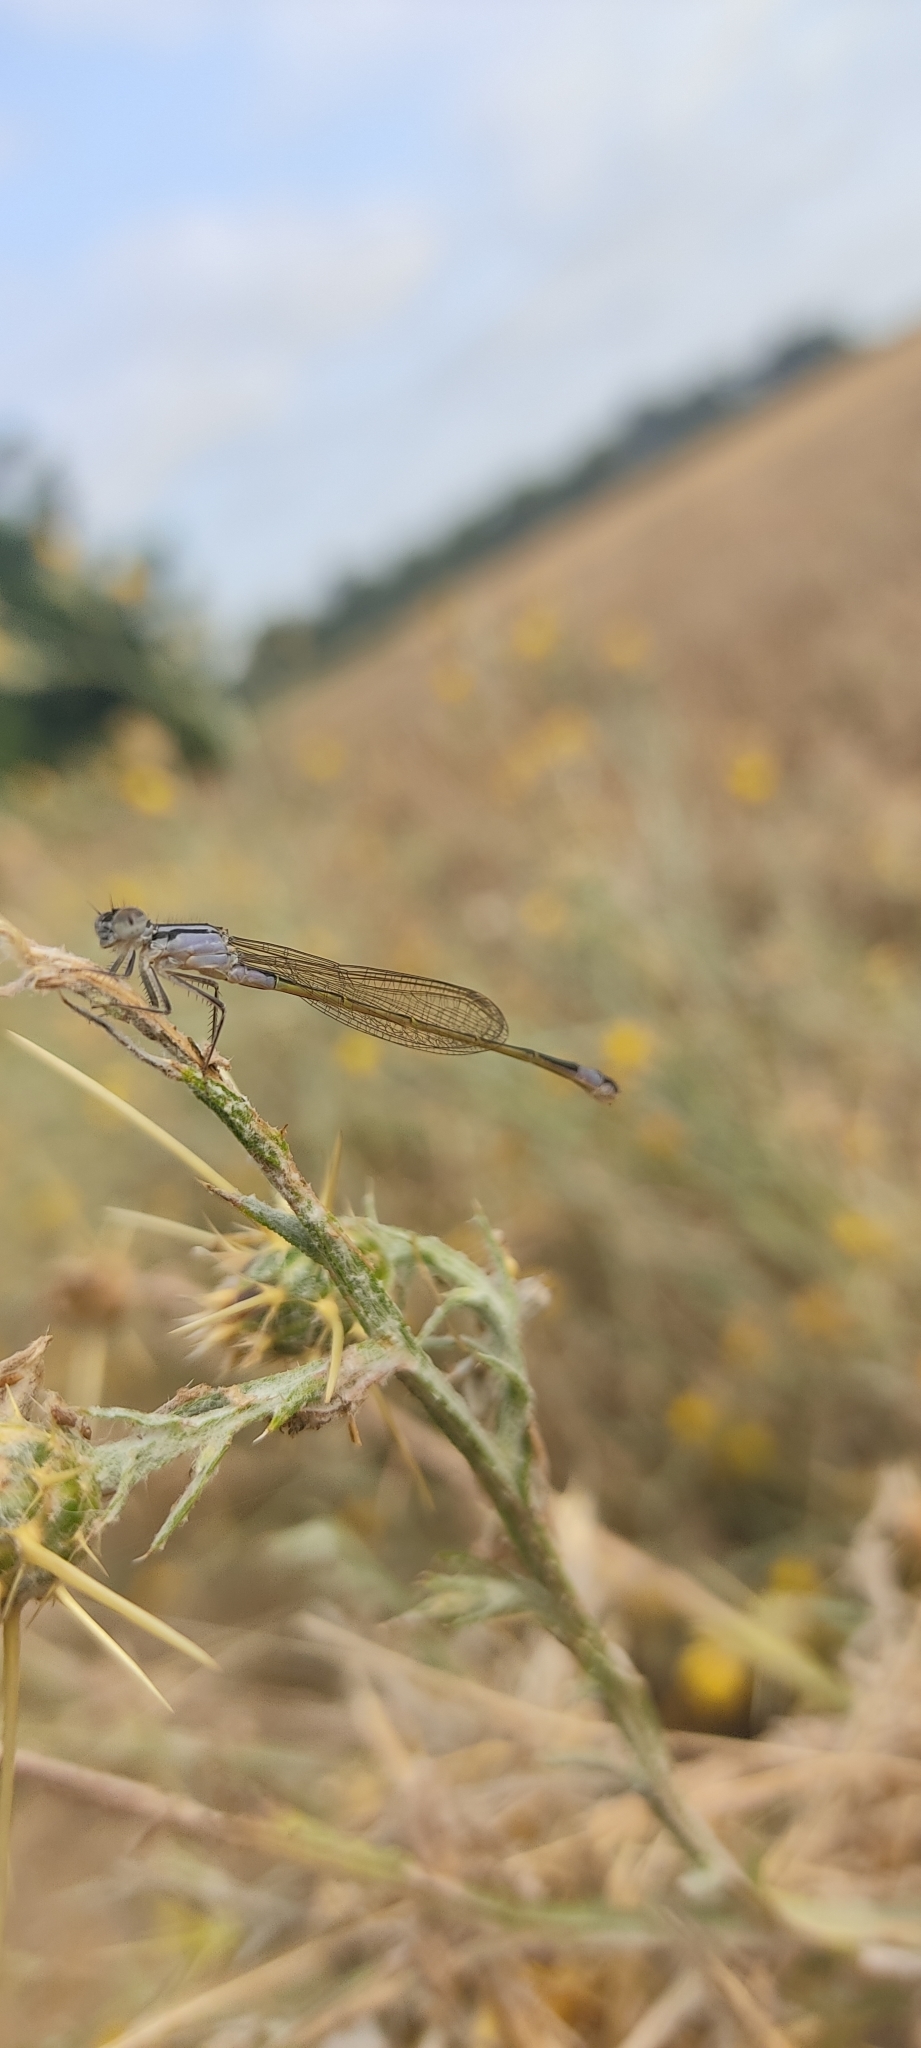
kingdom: Animalia
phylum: Arthropoda
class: Insecta
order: Odonata
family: Coenagrionidae
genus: Ischnura
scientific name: Ischnura elegans
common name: Blue-tailed damselfly
